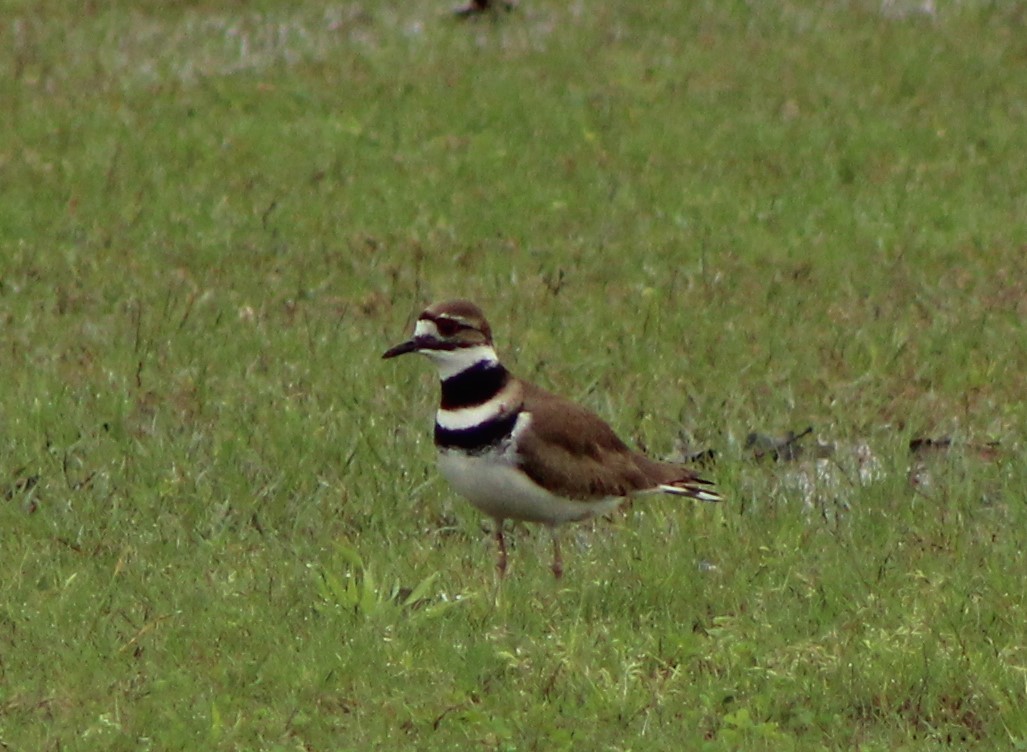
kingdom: Animalia
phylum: Chordata
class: Aves
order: Charadriiformes
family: Charadriidae
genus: Charadrius
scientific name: Charadrius vociferus
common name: Killdeer
